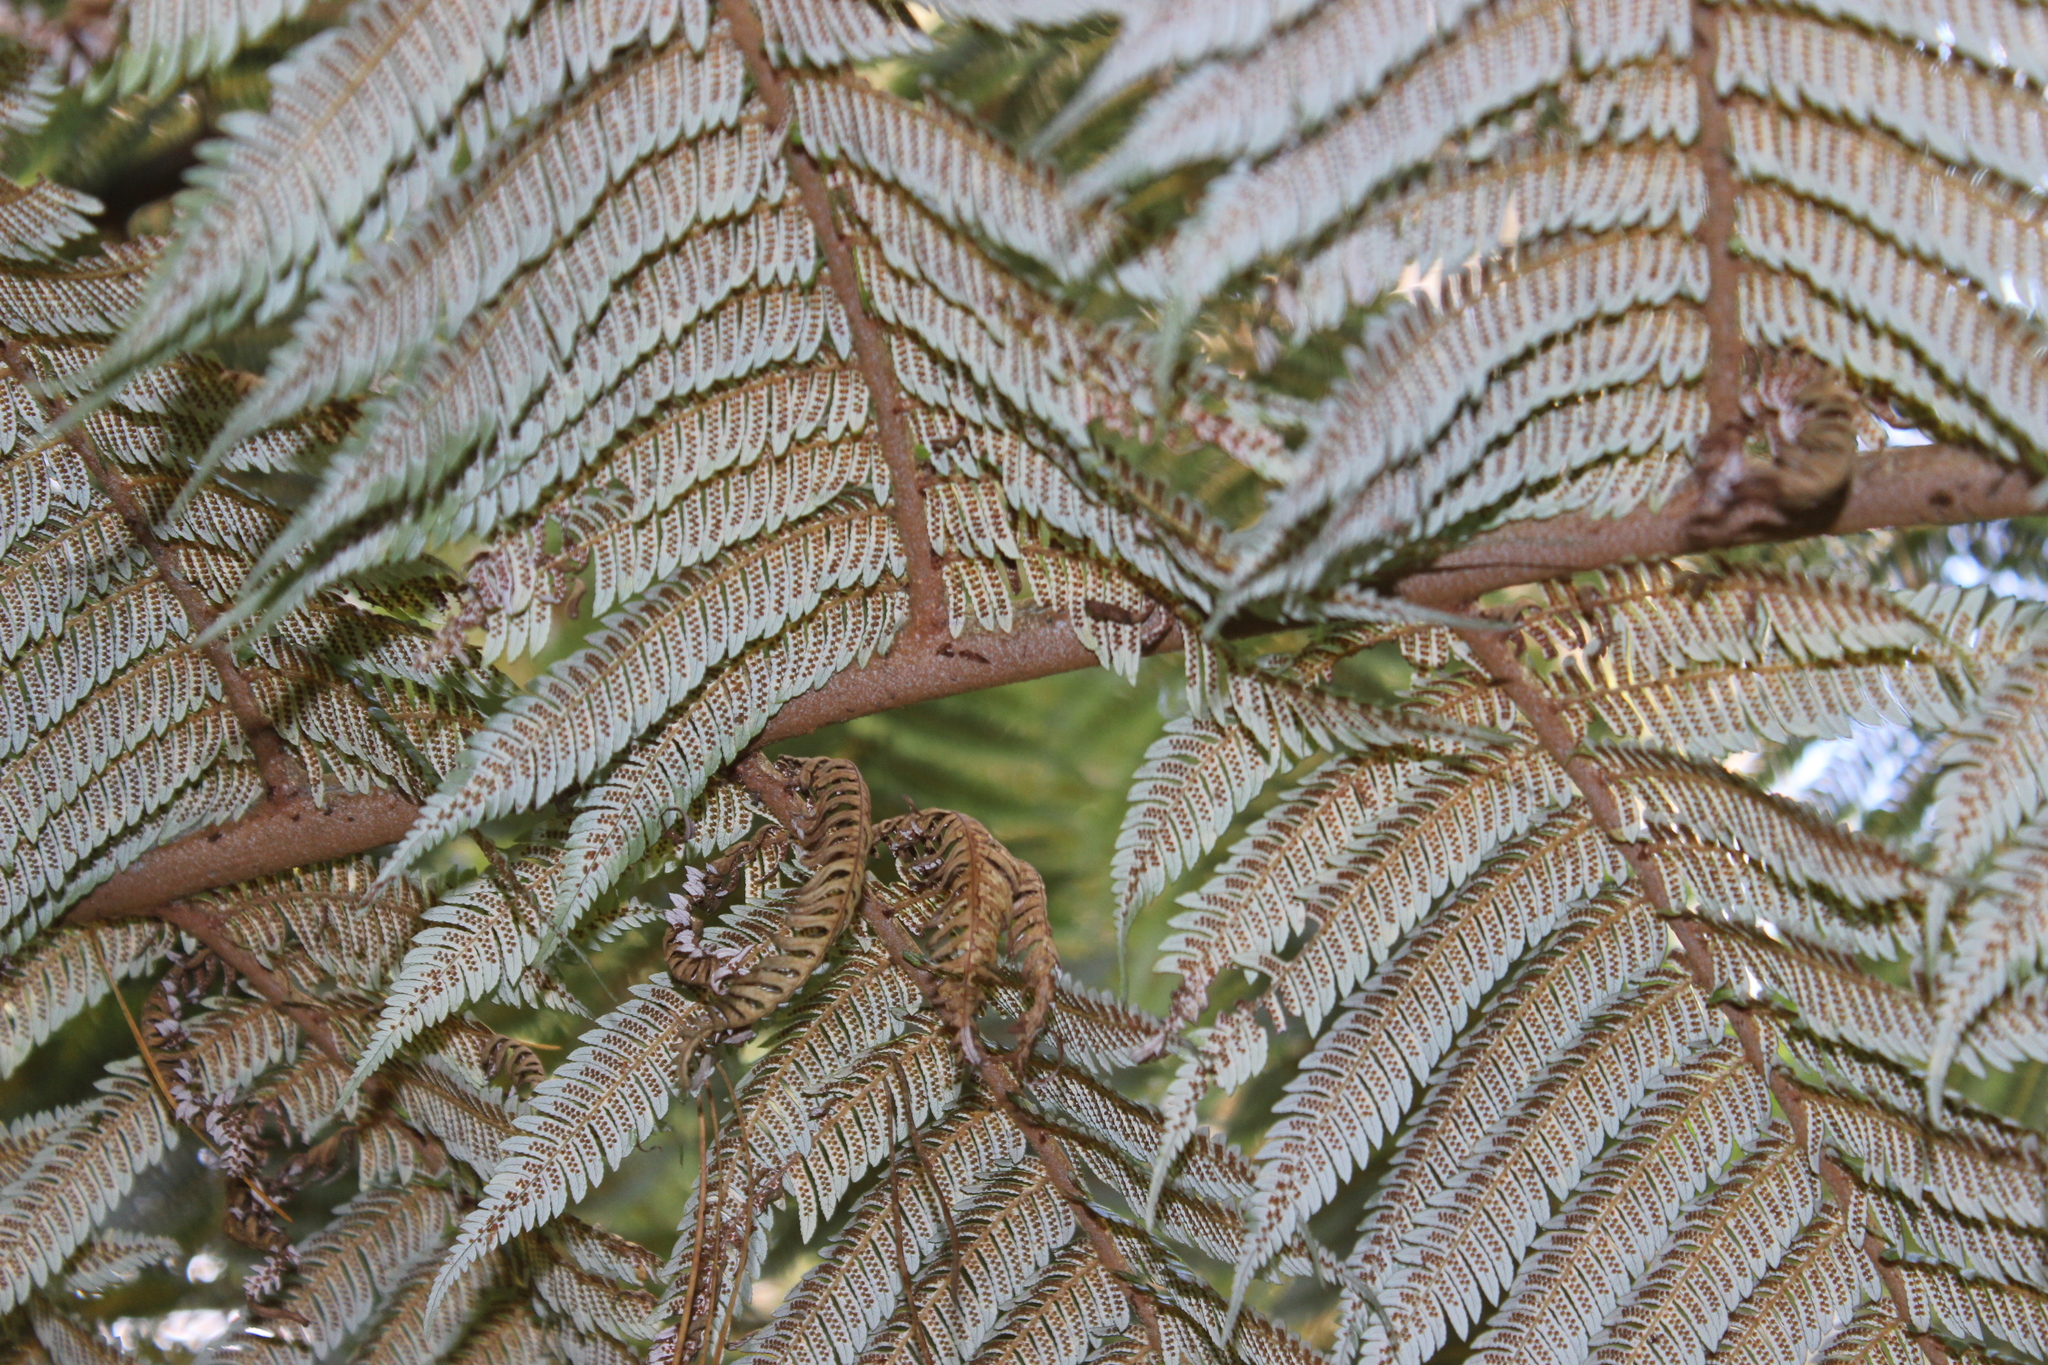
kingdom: Plantae
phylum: Tracheophyta
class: Polypodiopsida
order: Cyatheales
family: Cyatheaceae
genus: Alsophila
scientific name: Alsophila dealbata
